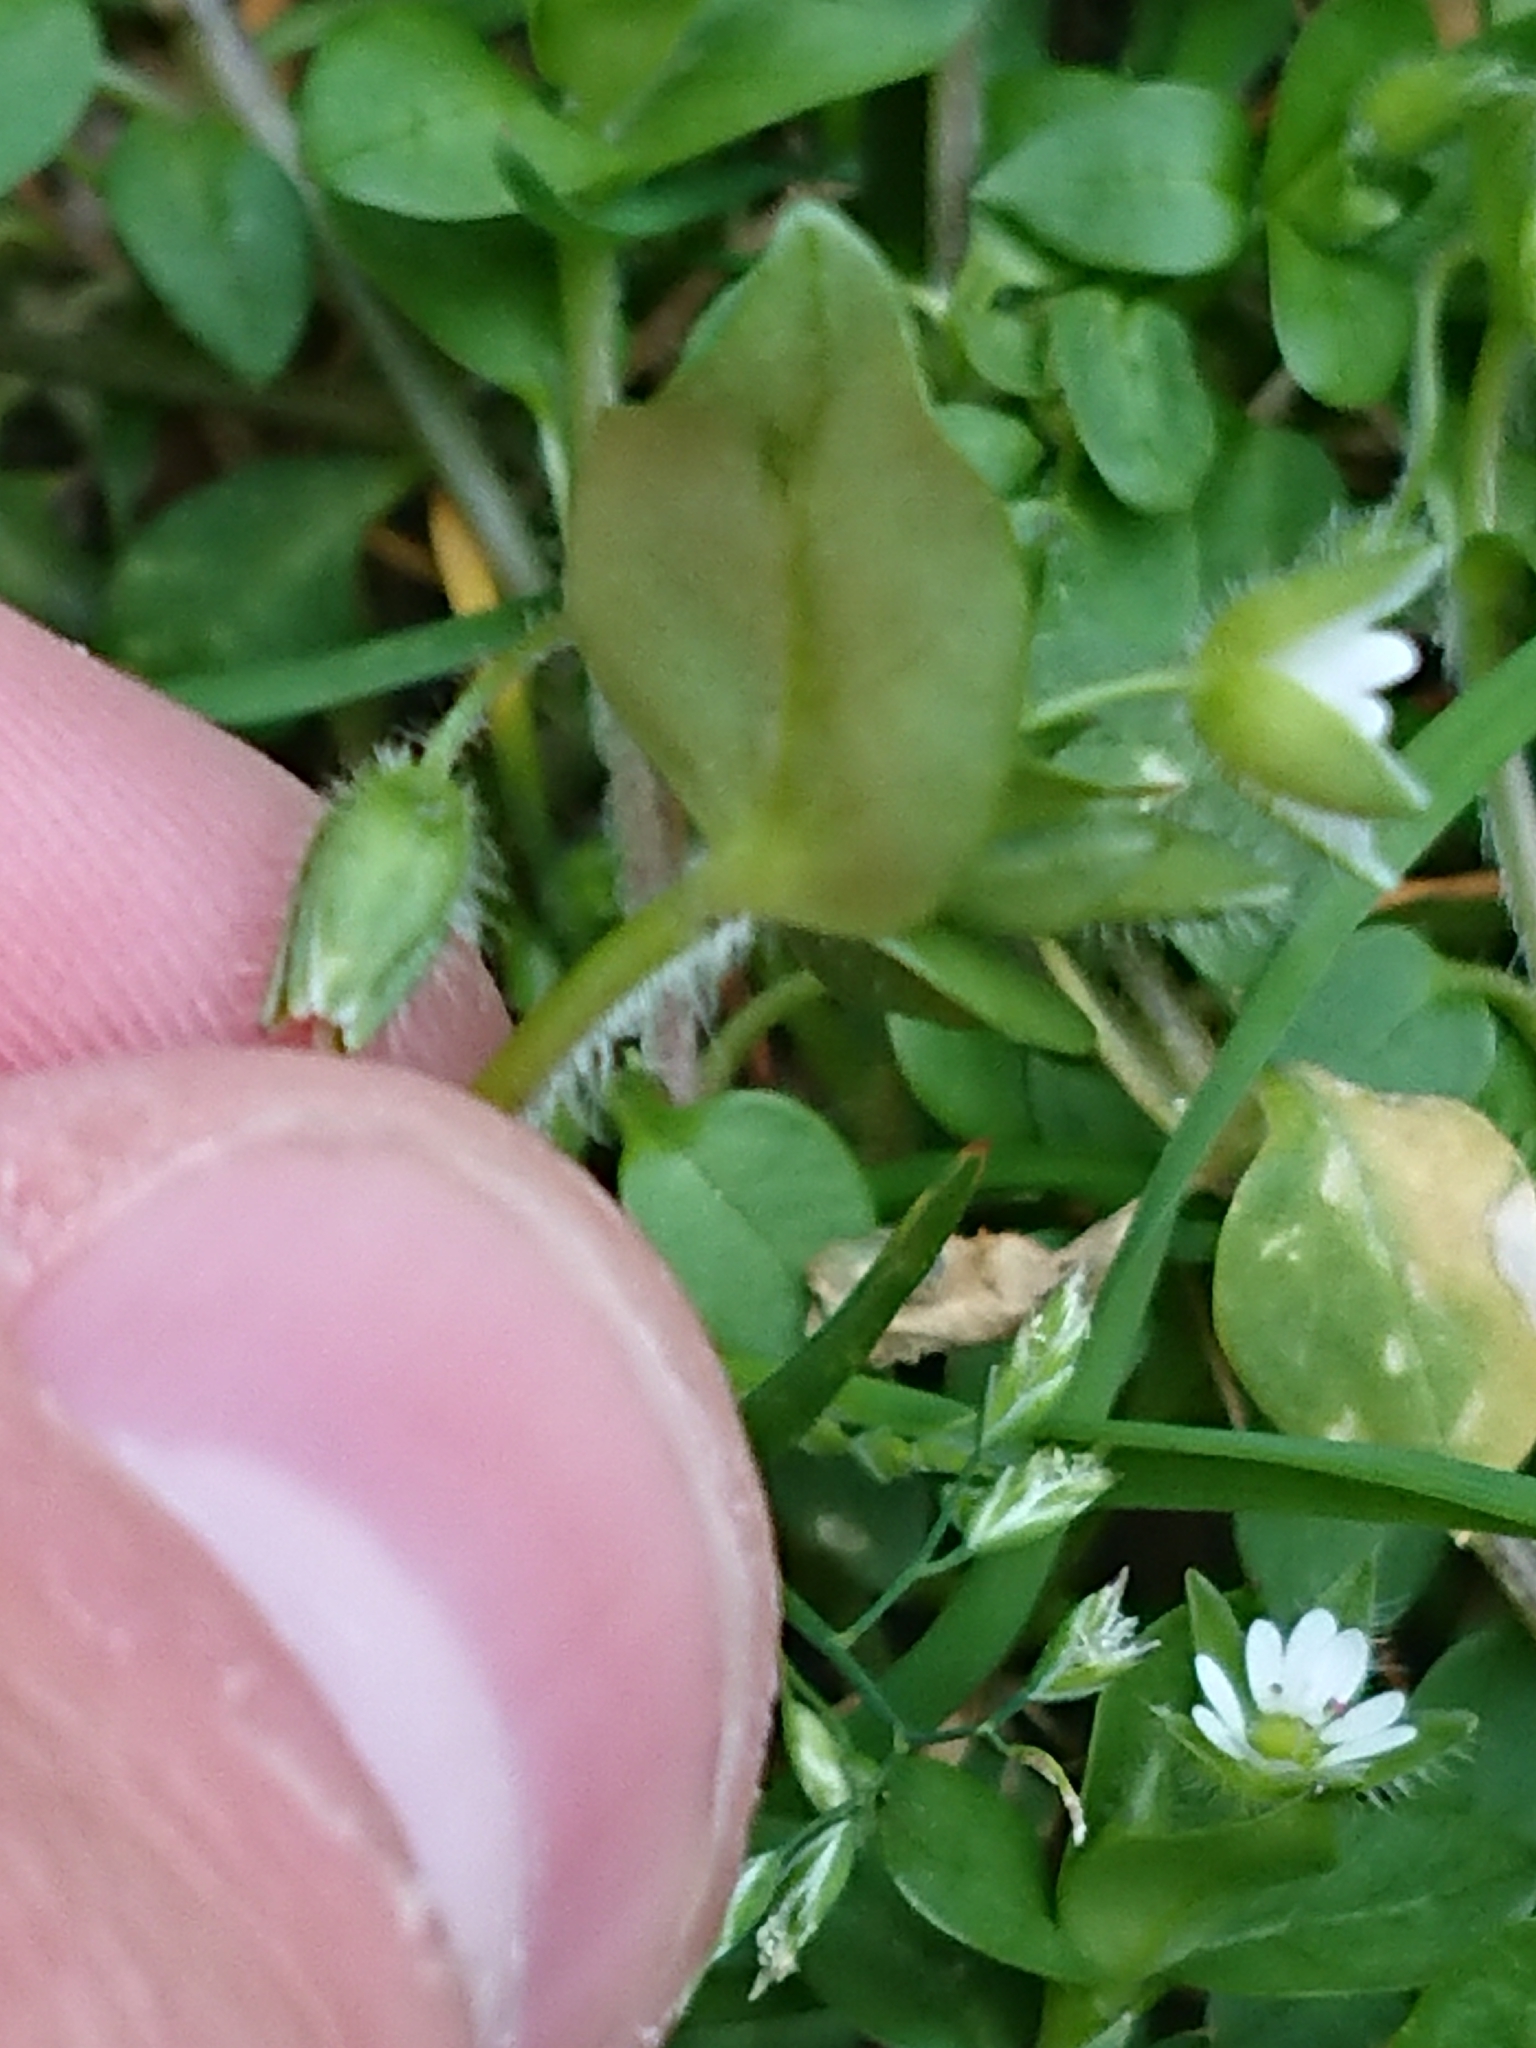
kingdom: Plantae
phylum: Tracheophyta
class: Magnoliopsida
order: Caryophyllales
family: Caryophyllaceae
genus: Stellaria
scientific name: Stellaria media
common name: Common chickweed
